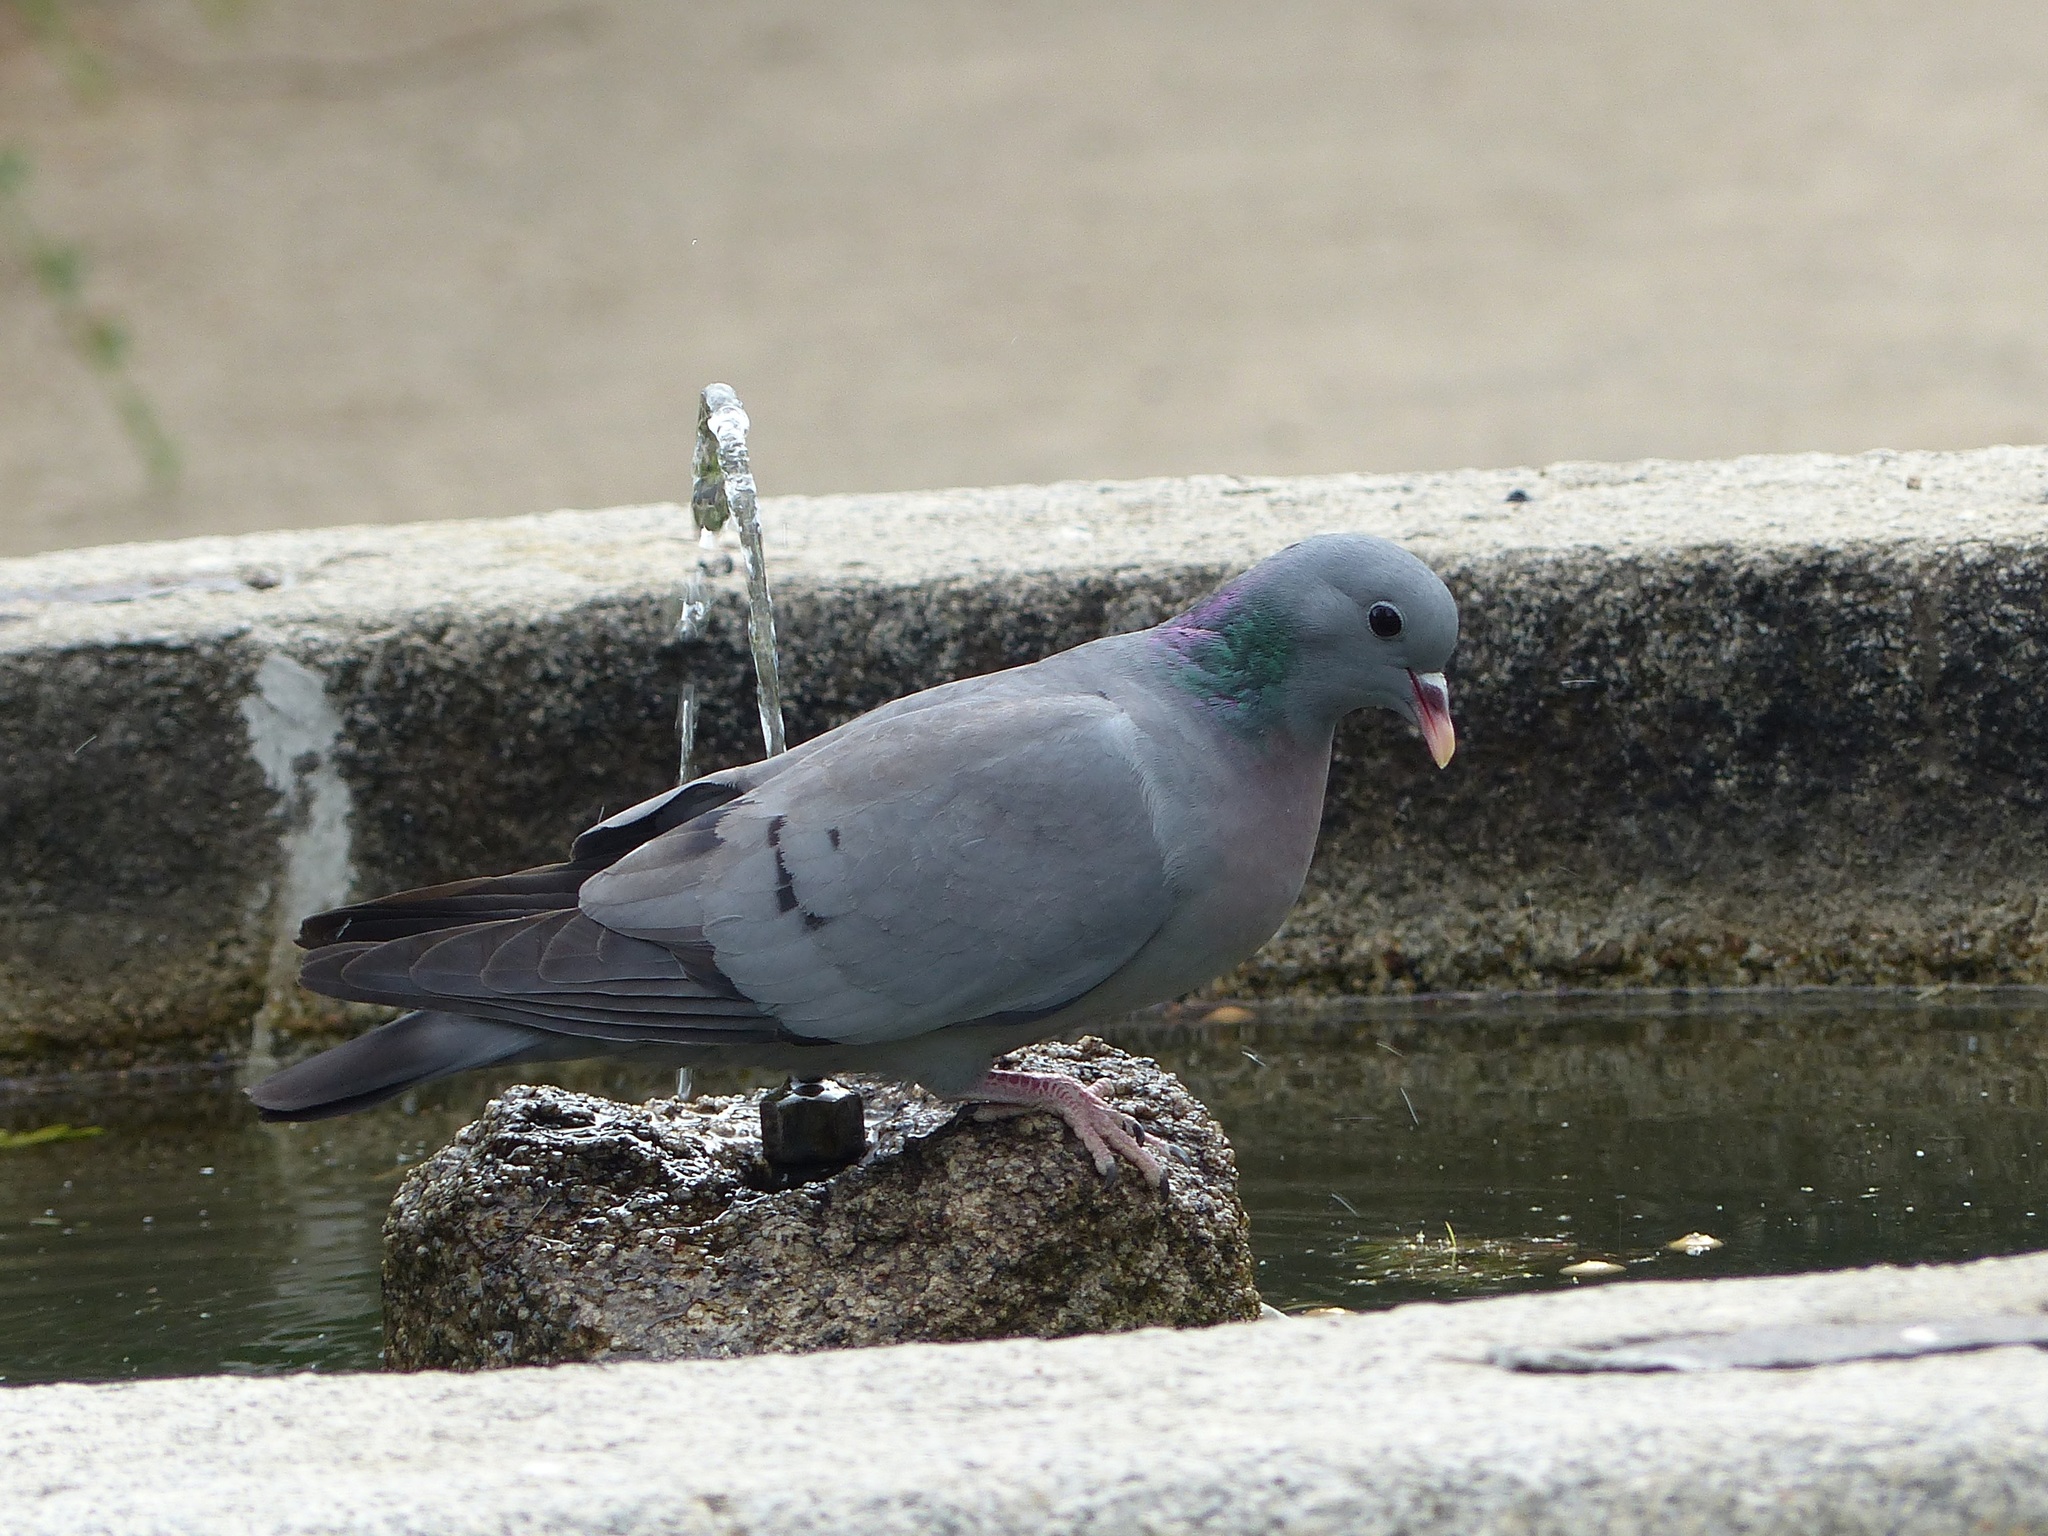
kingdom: Animalia
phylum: Chordata
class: Aves
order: Columbiformes
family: Columbidae
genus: Columba
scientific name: Columba oenas
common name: Stock dove
